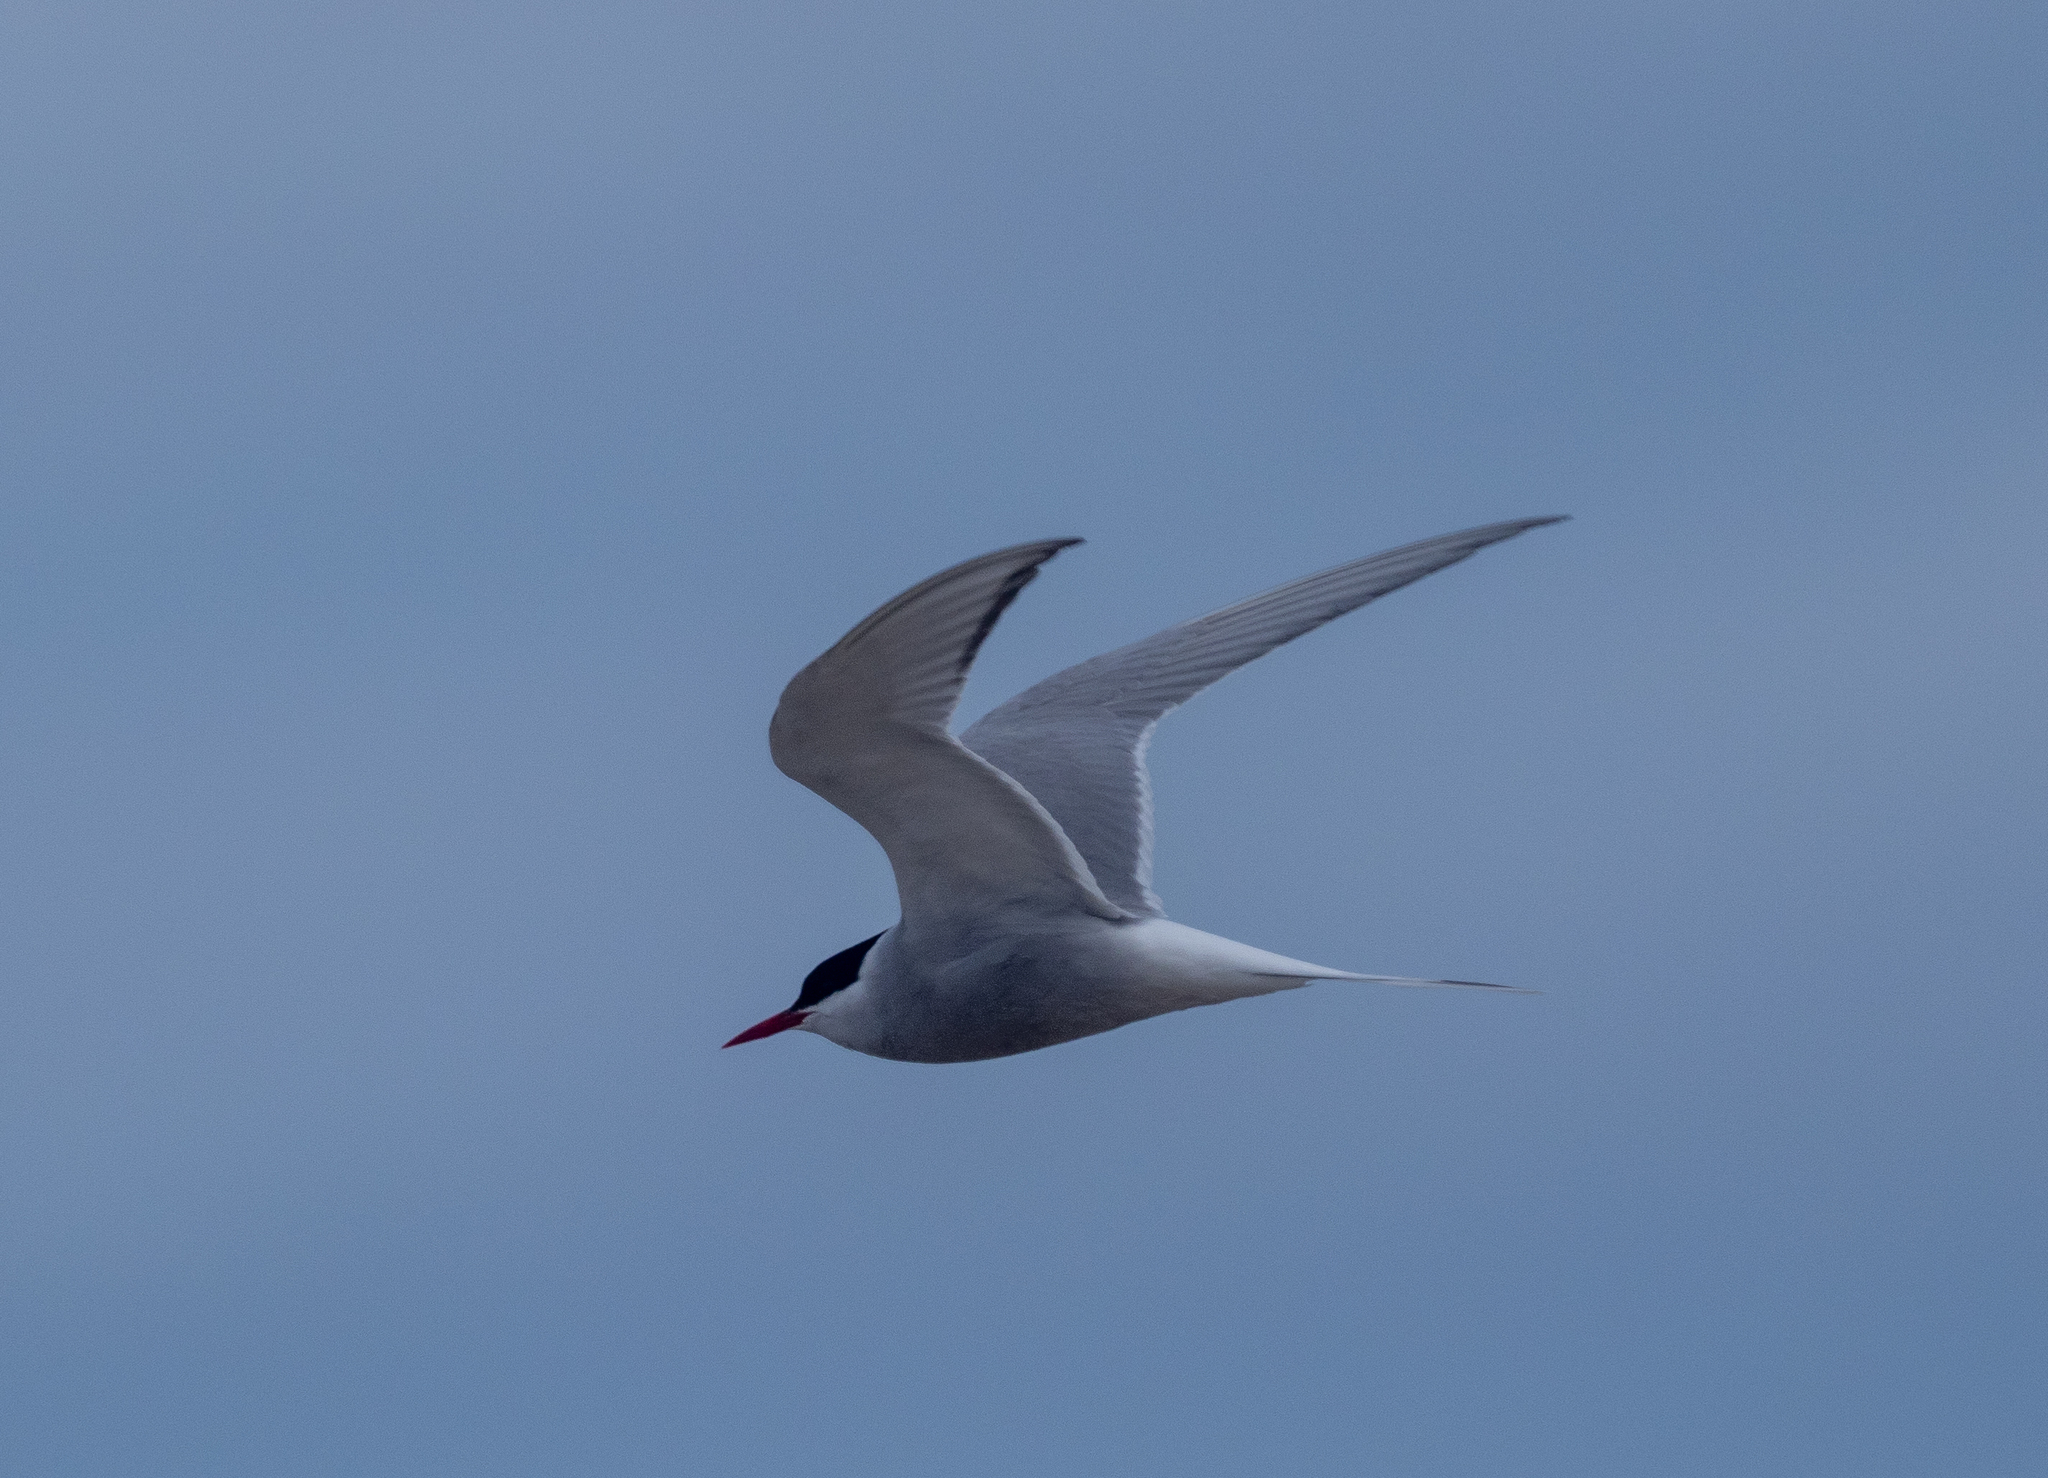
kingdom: Animalia
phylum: Chordata
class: Aves
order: Charadriiformes
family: Laridae
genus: Sterna
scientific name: Sterna paradisaea
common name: Arctic tern
